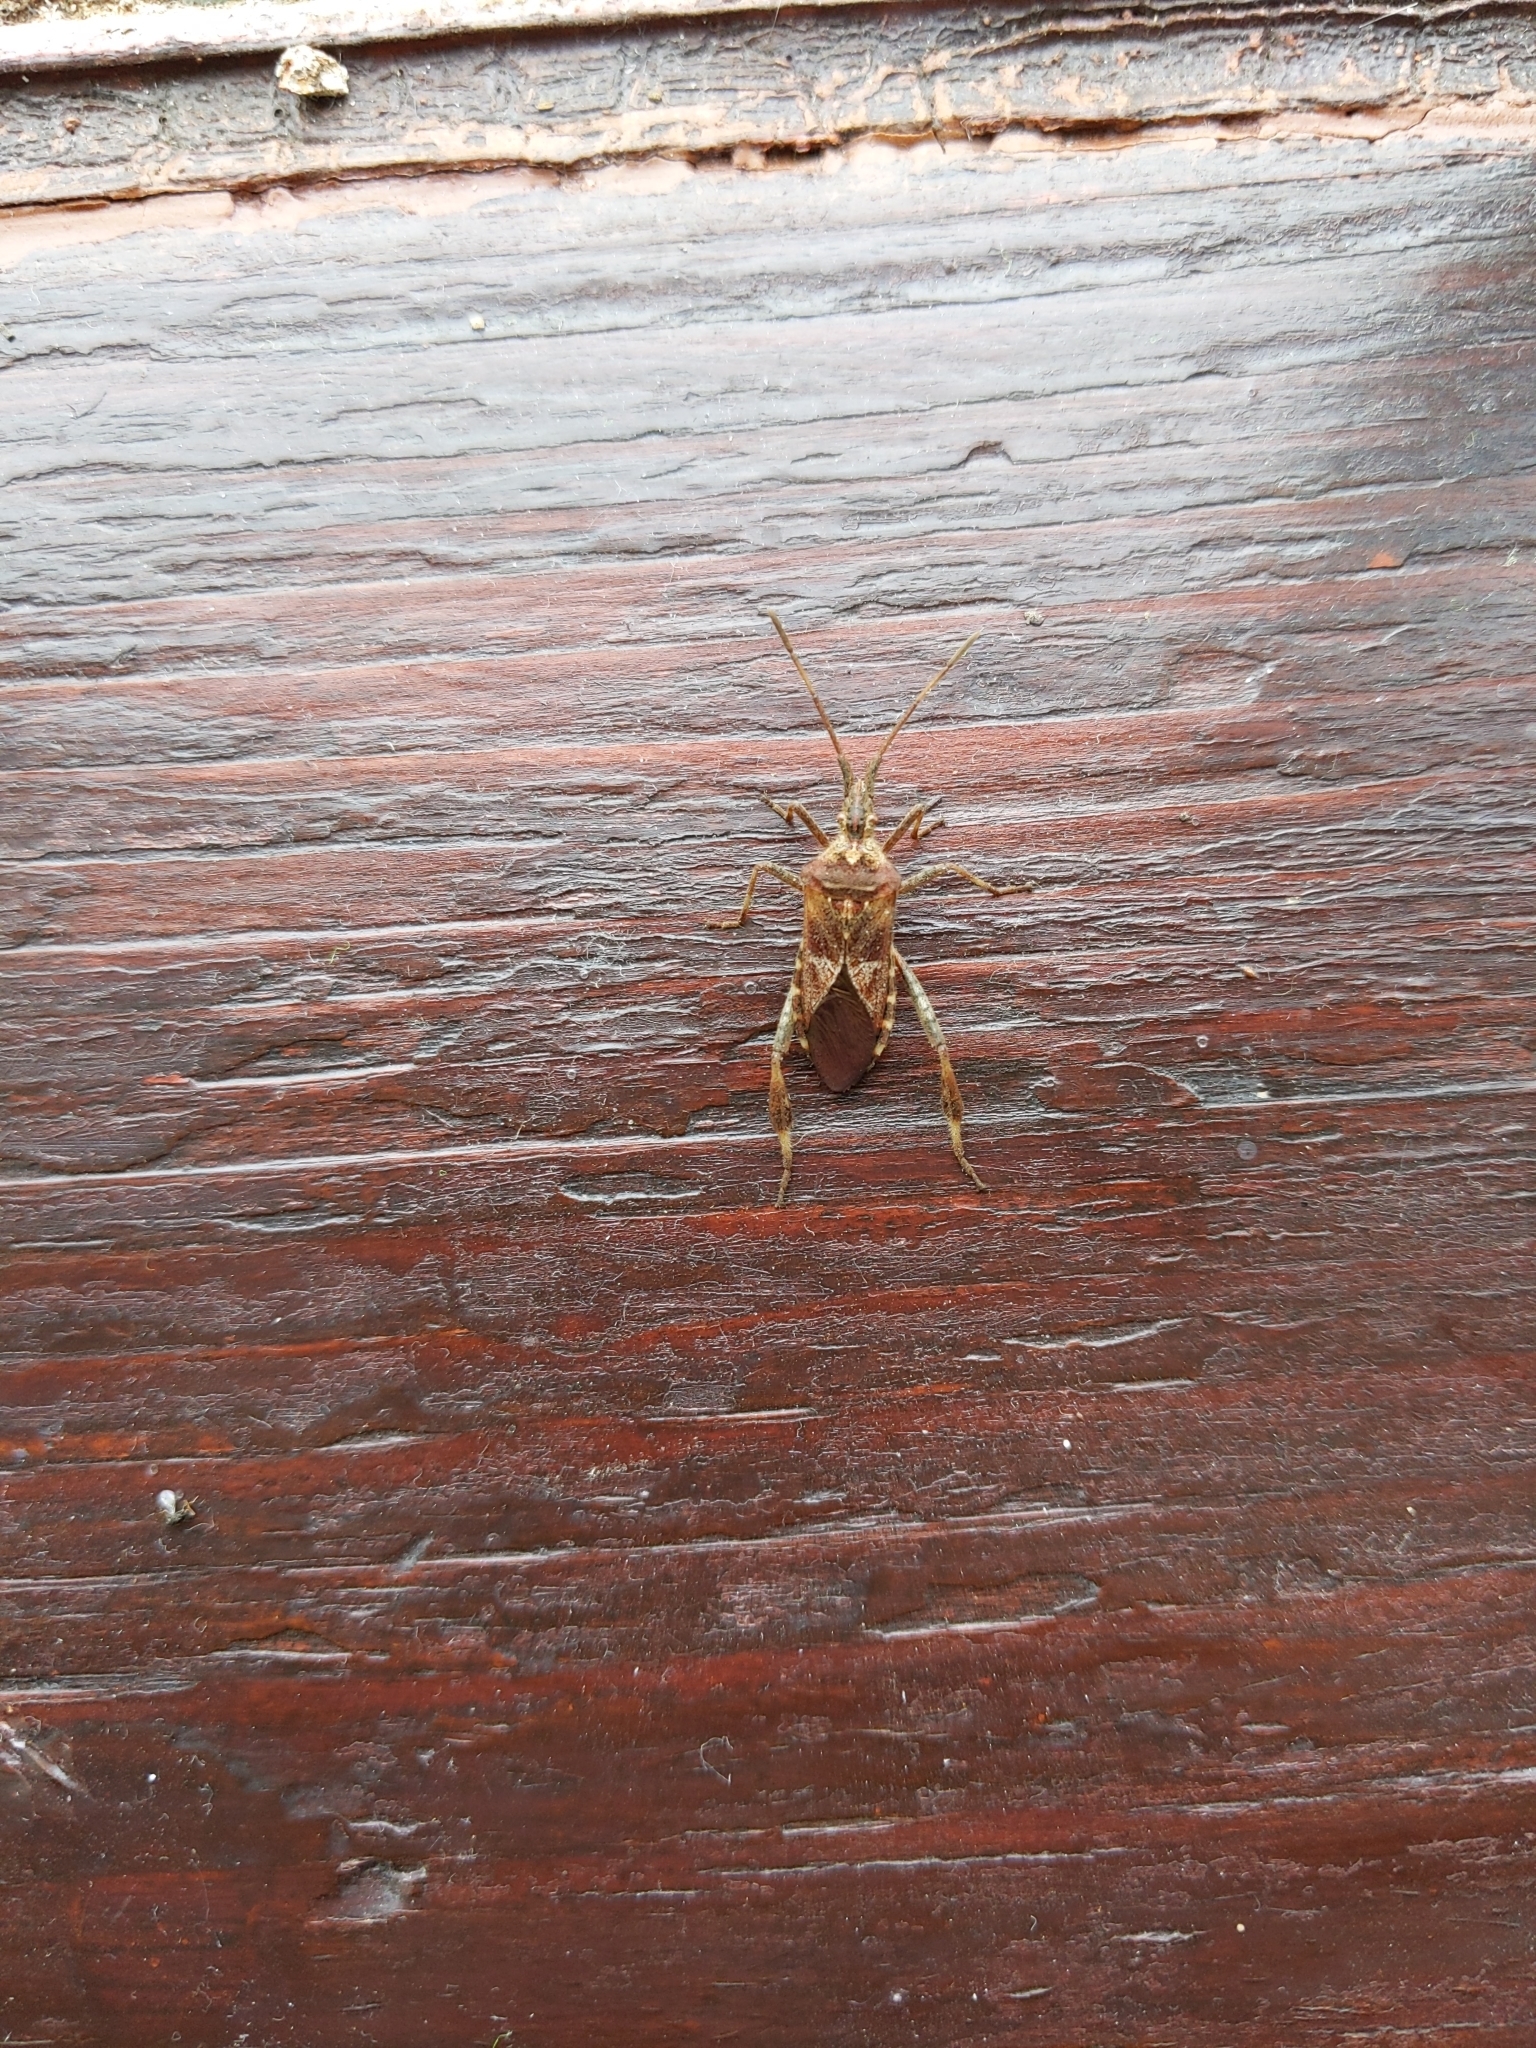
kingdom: Animalia
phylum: Arthropoda
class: Insecta
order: Hemiptera
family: Coreidae
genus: Leptoglossus
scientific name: Leptoglossus occidentalis
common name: Western conifer-seed bug
